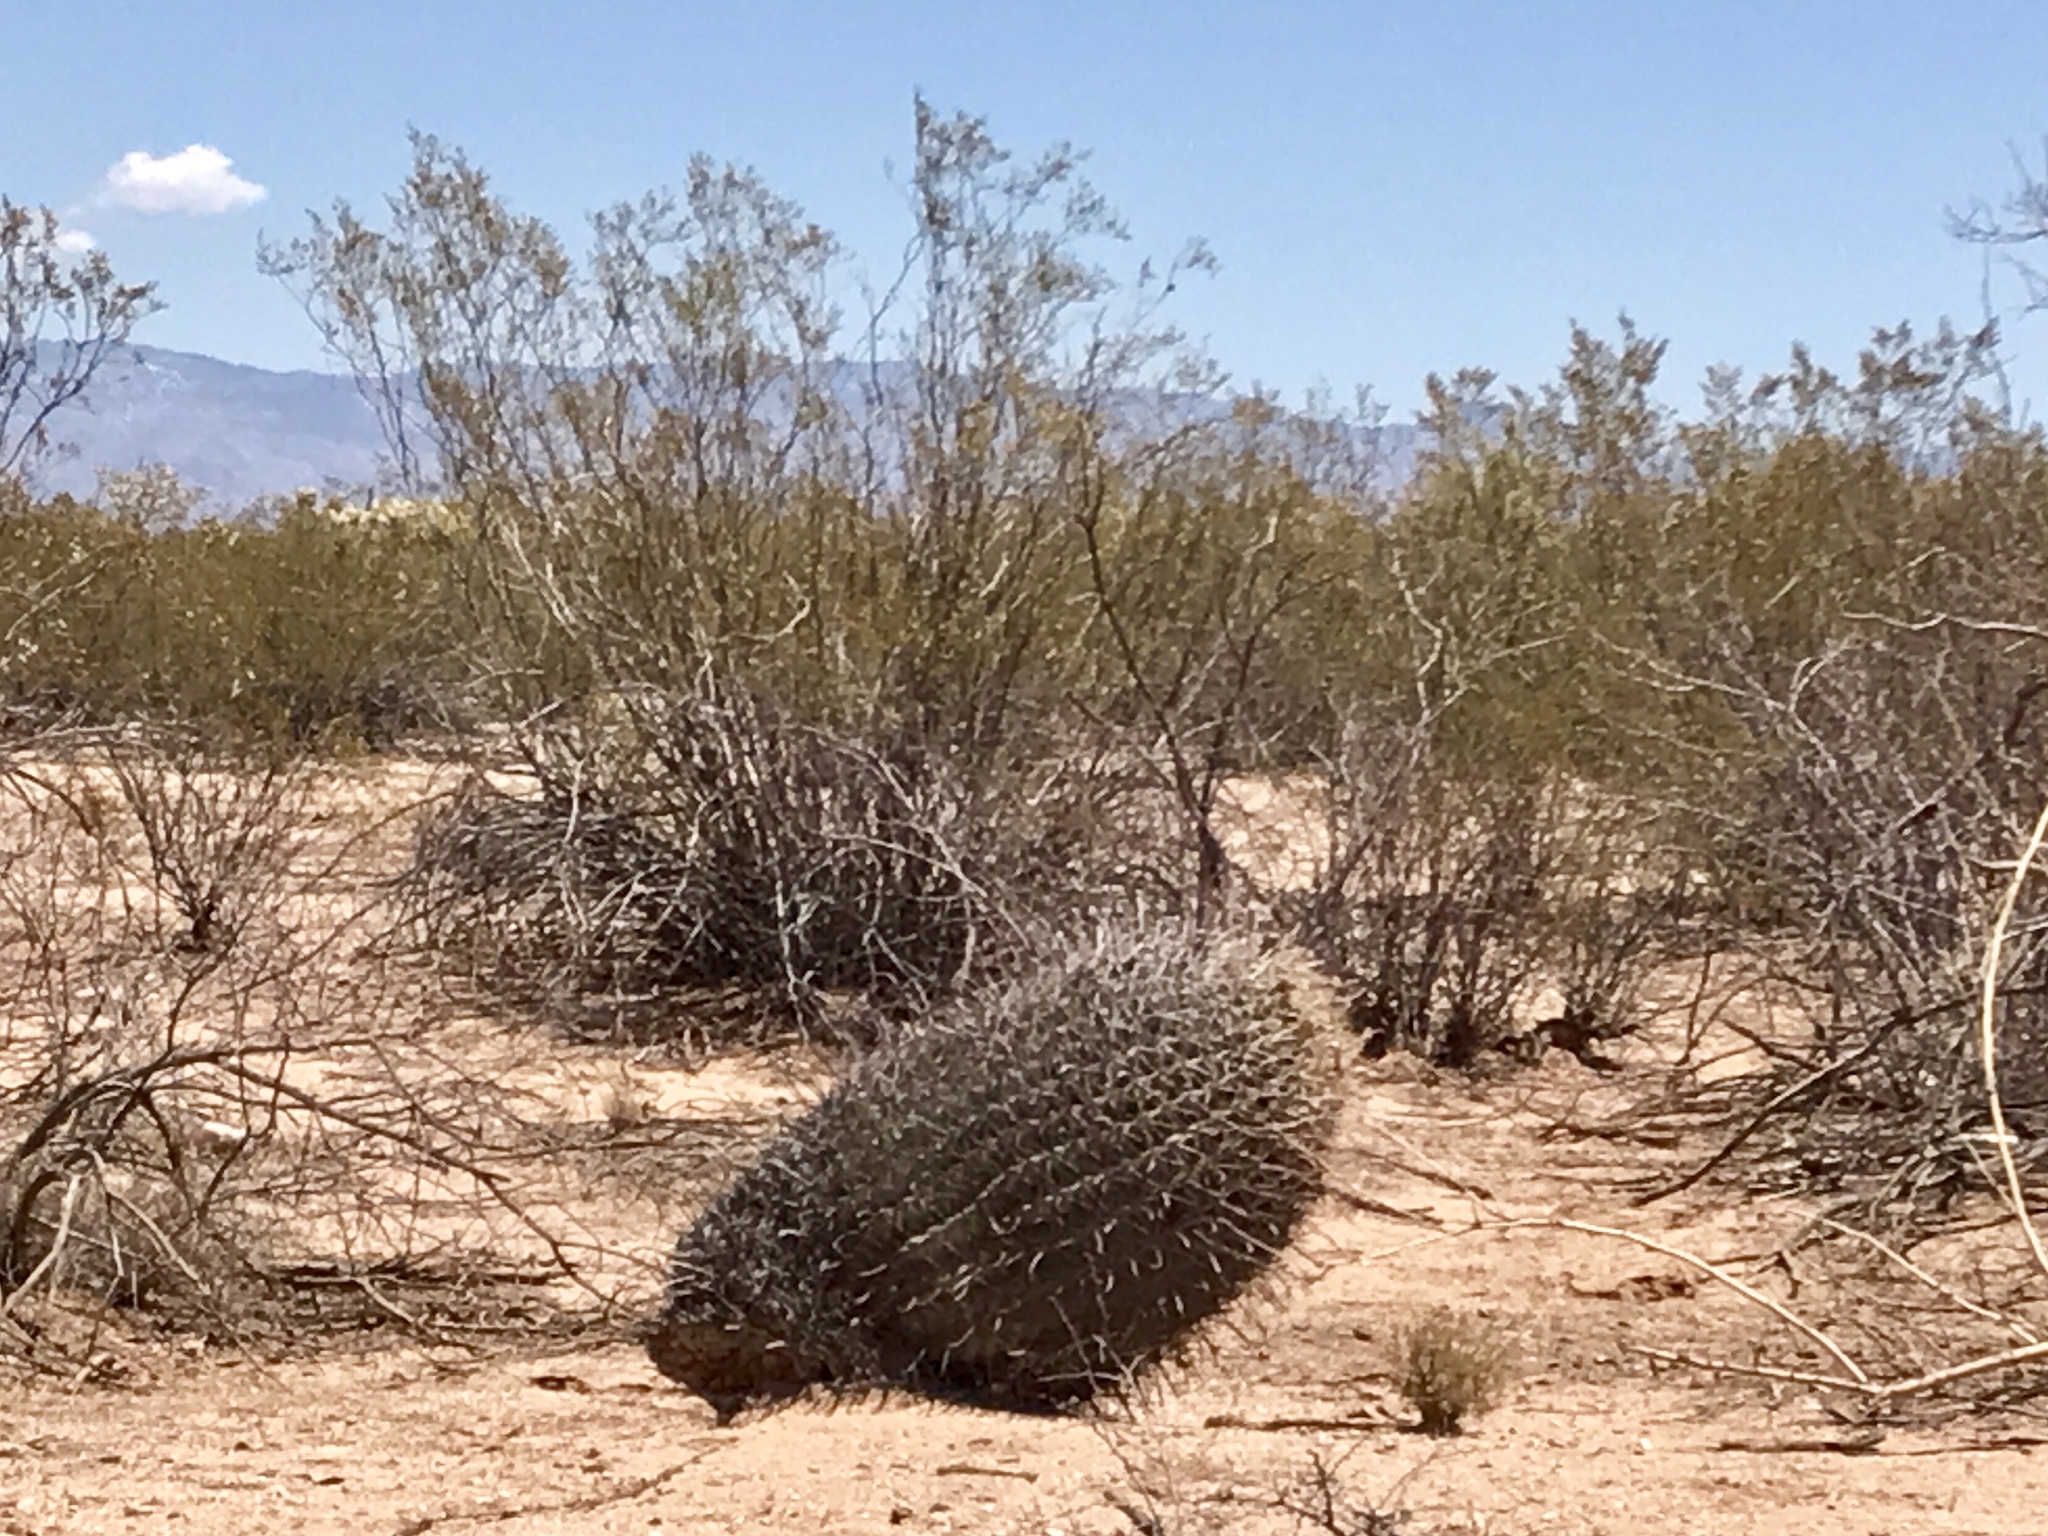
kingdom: Plantae
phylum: Tracheophyta
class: Magnoliopsida
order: Caryophyllales
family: Cactaceae
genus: Ferocactus
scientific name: Ferocactus wislizeni
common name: Candy barrel cactus
